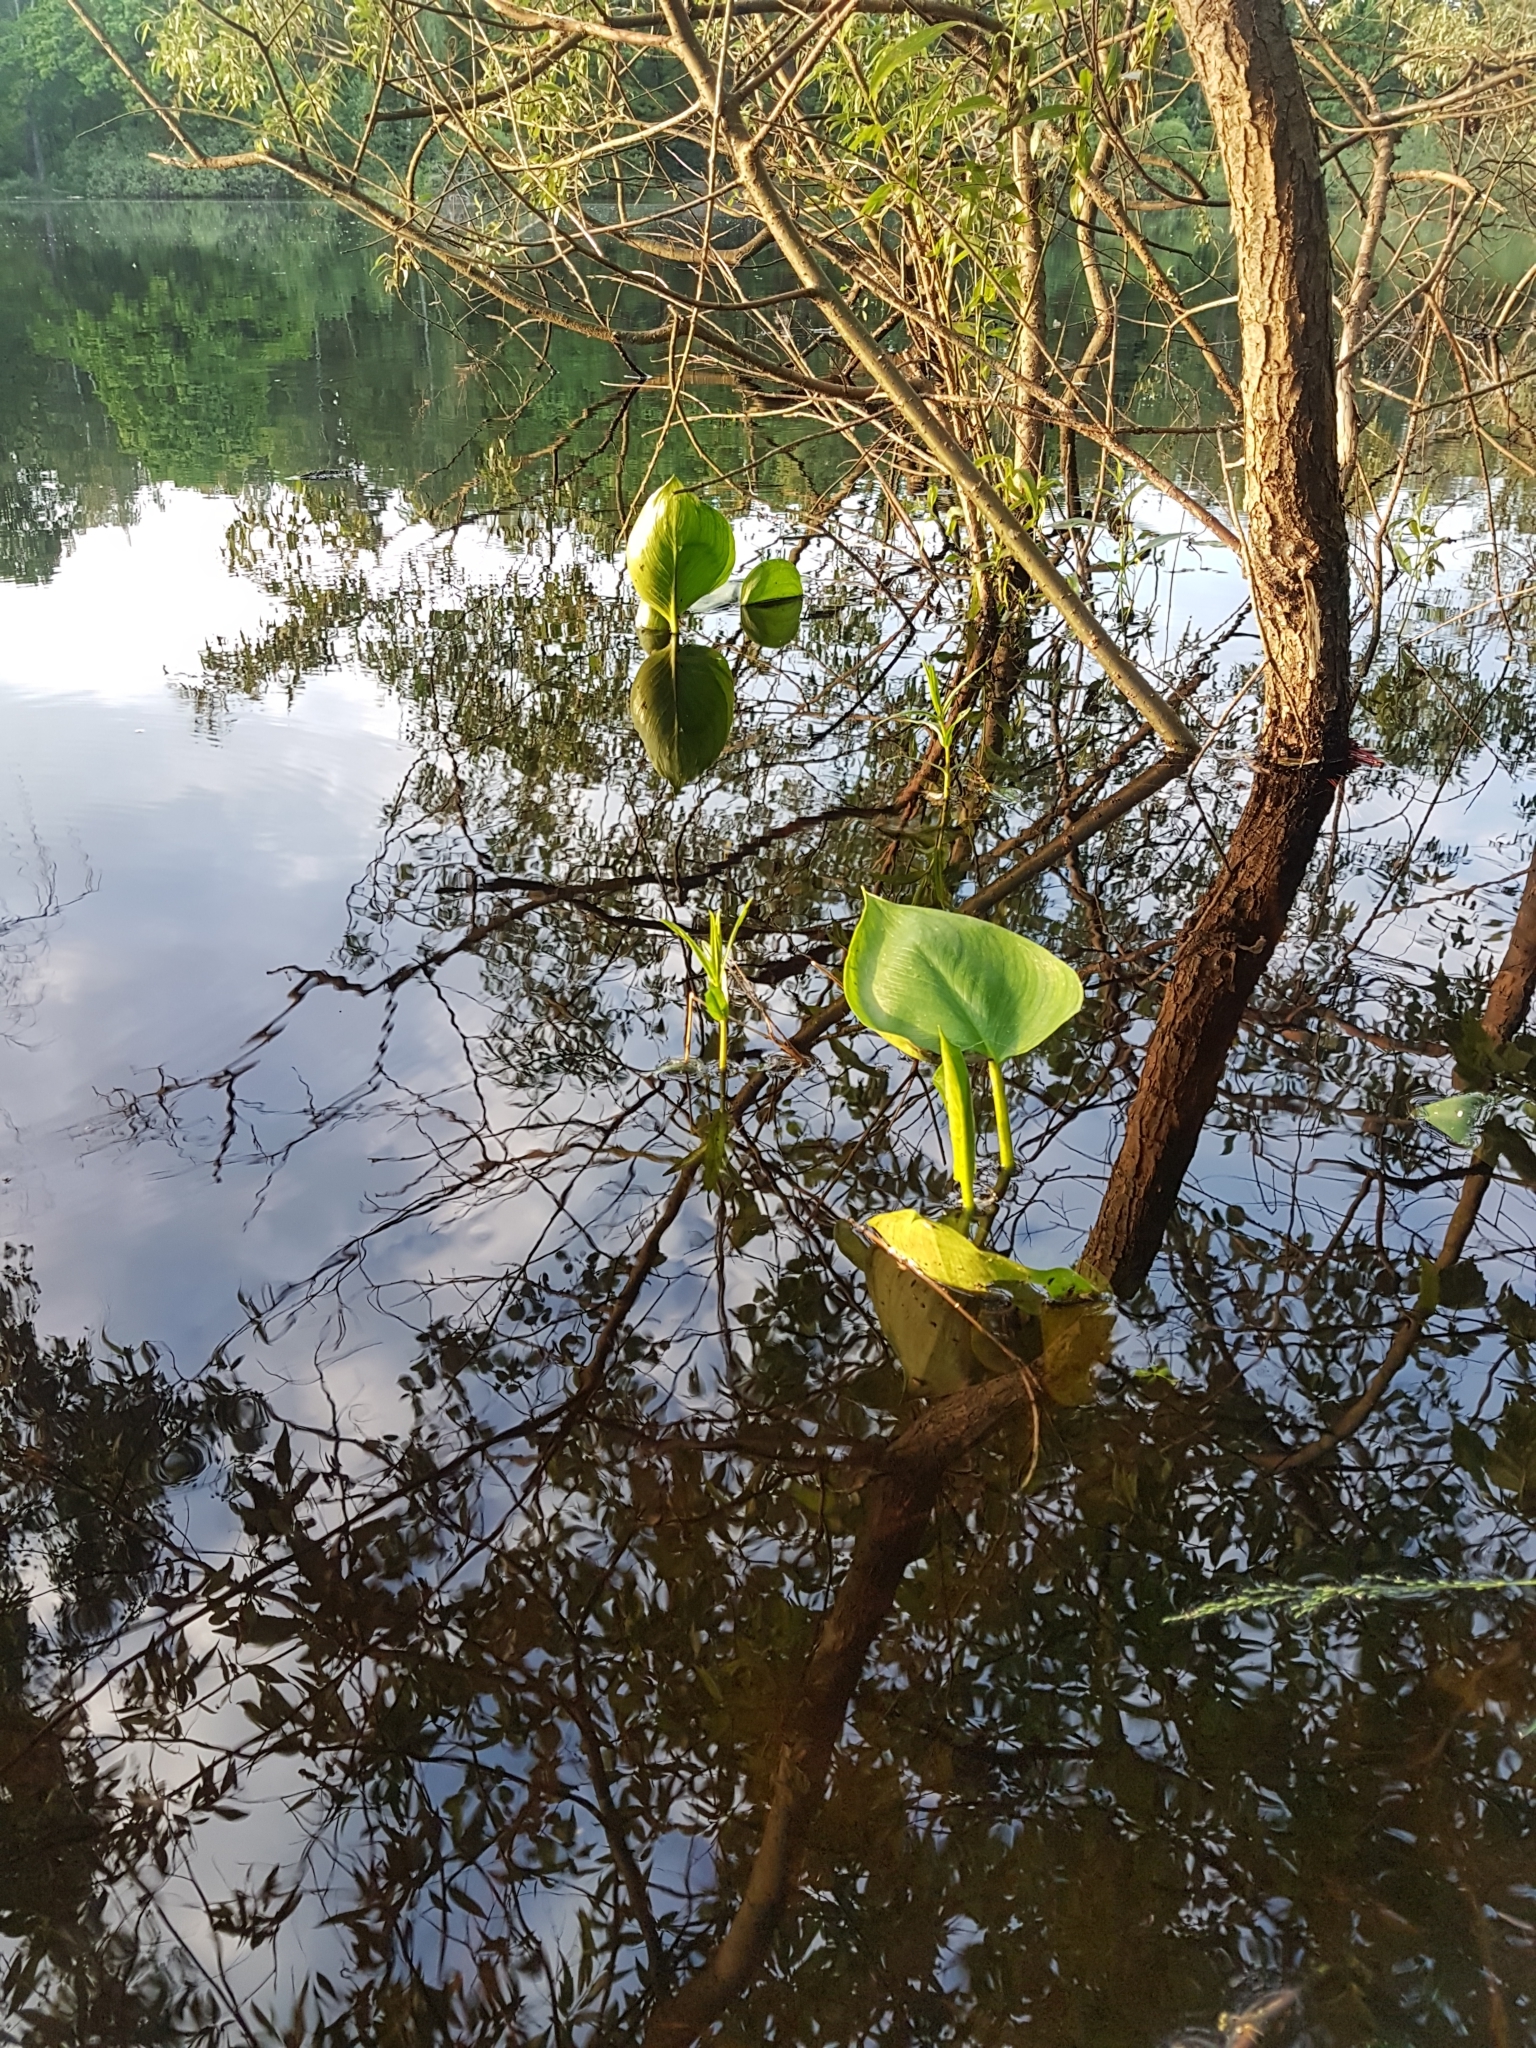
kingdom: Plantae
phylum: Tracheophyta
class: Liliopsida
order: Alismatales
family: Araceae
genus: Calla
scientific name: Calla palustris
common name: Bog arum
